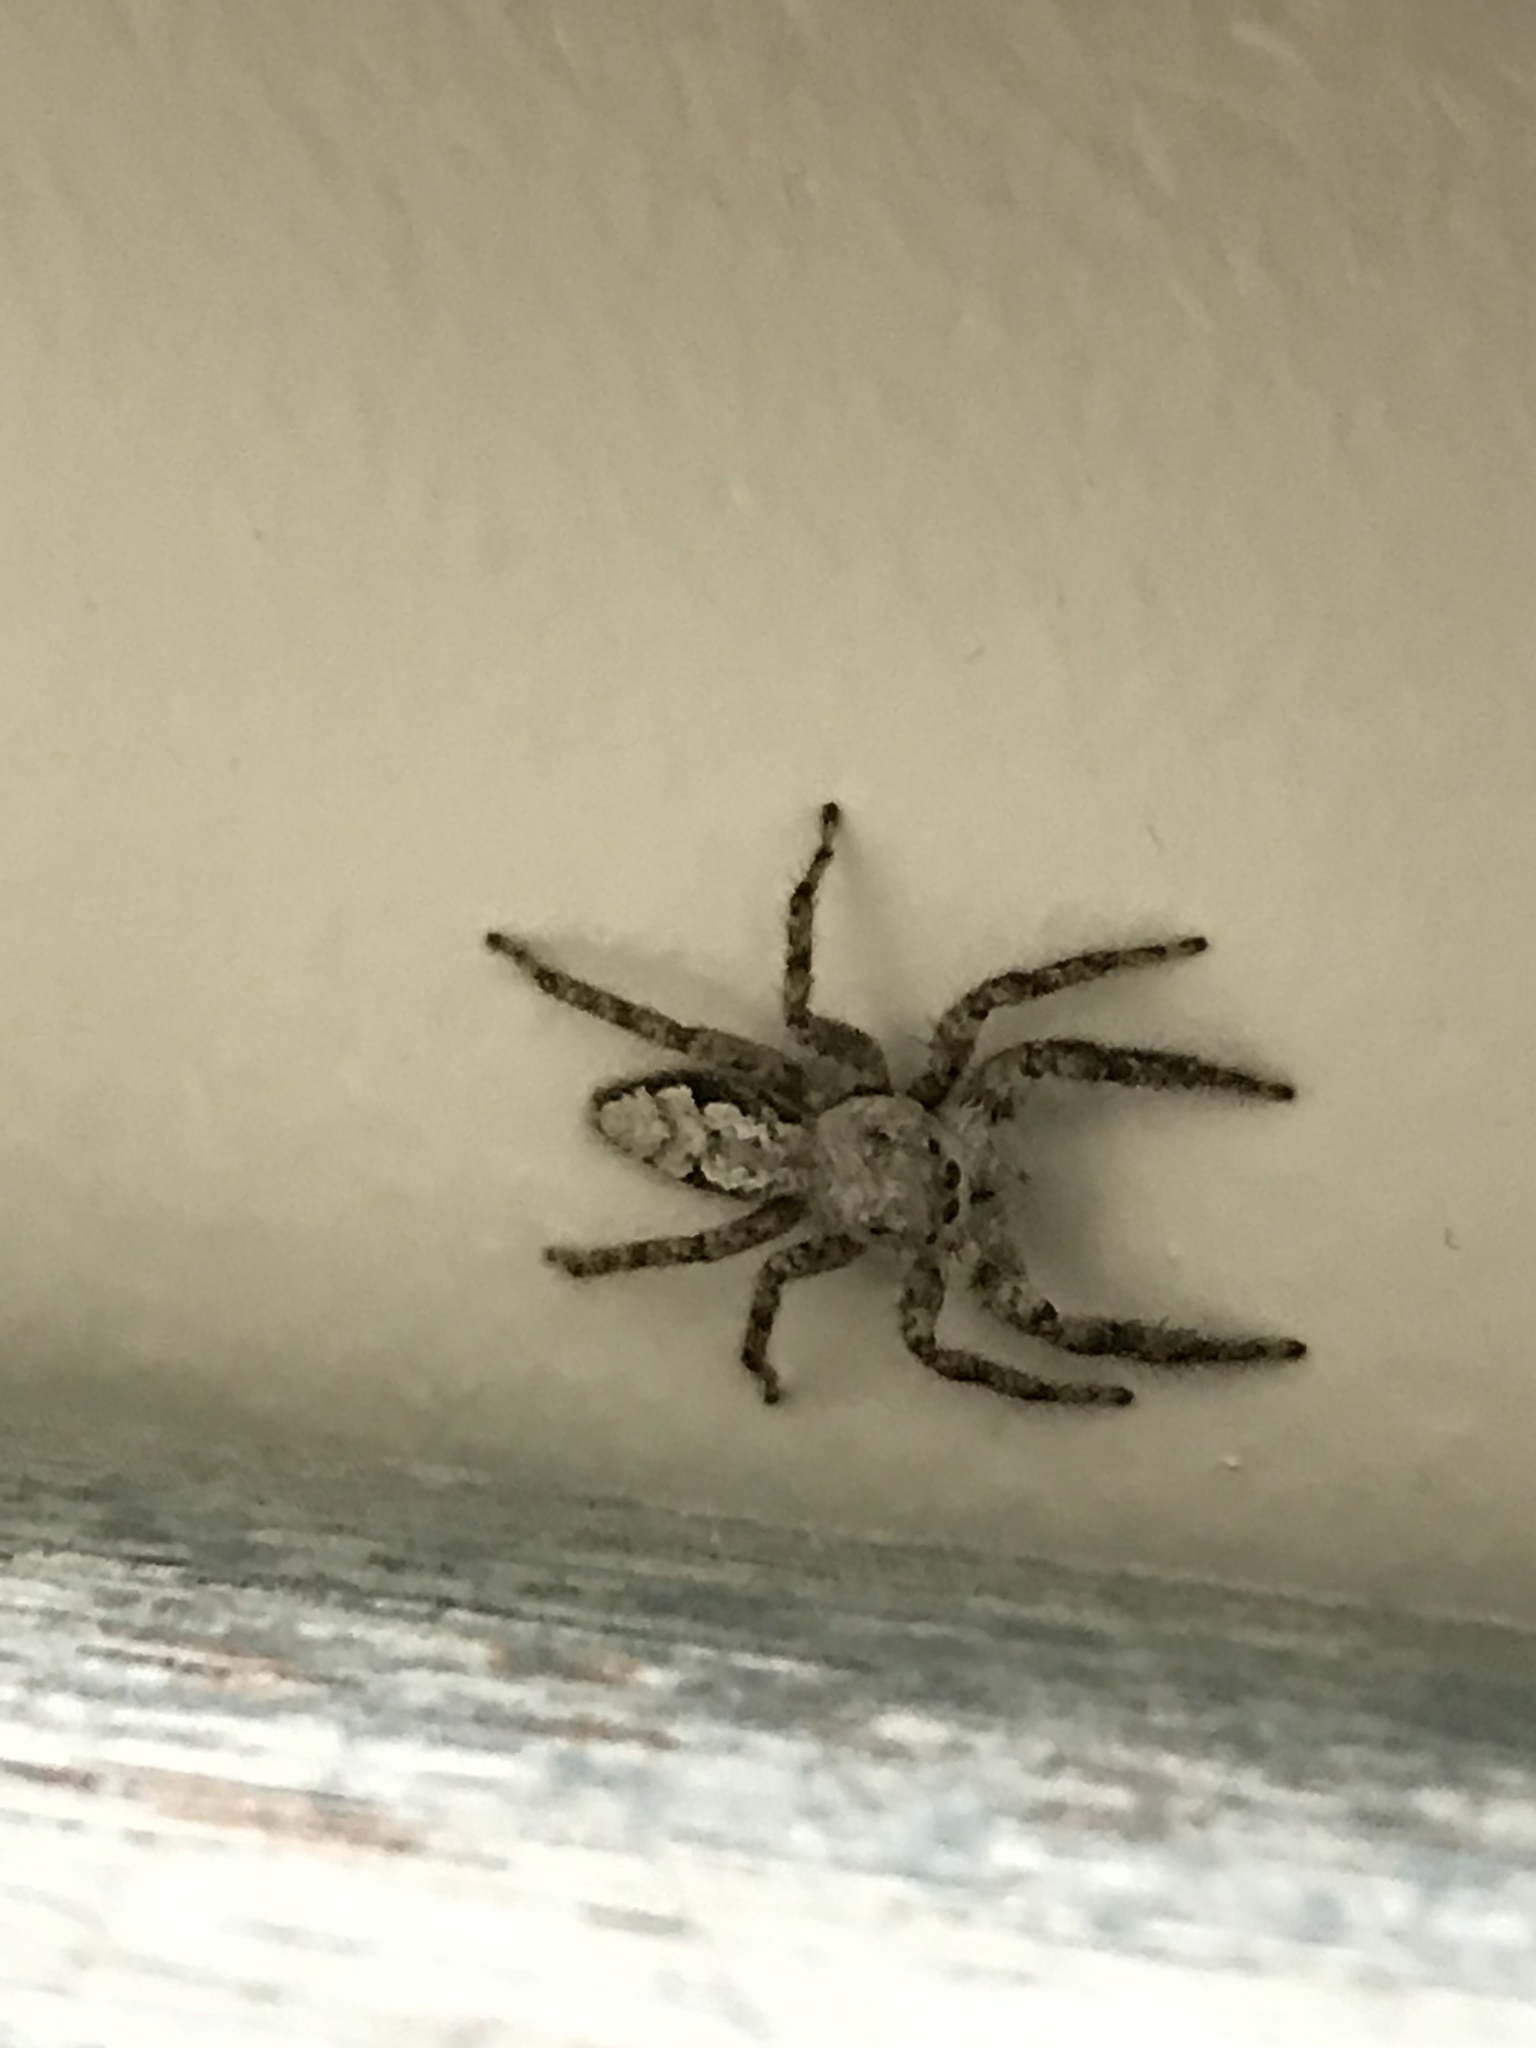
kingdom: Animalia
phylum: Arthropoda
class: Arachnida
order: Araneae
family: Salticidae
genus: Platycryptus
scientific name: Platycryptus undatus
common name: Tan jumping spider
